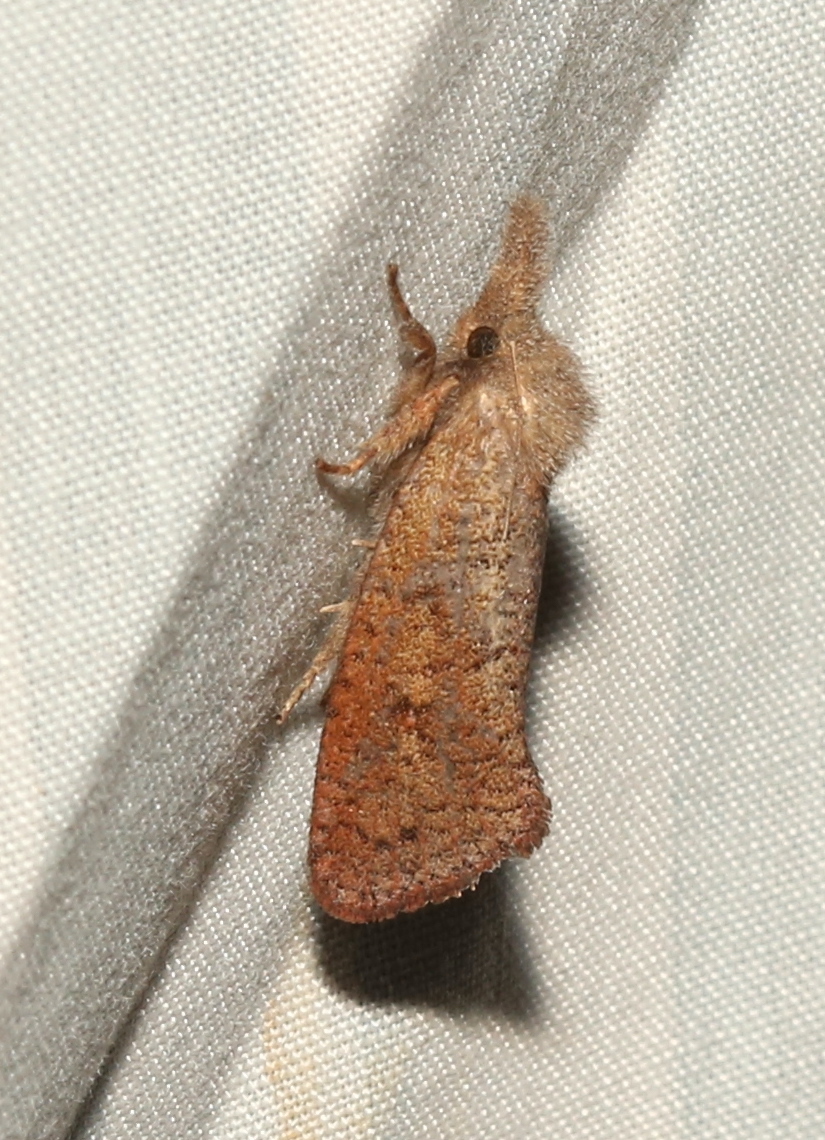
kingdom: Animalia
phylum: Arthropoda
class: Insecta
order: Lepidoptera
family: Tineidae
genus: Acrolophus
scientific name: Acrolophus plumifrontella
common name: Eastern grass tubeworm moth
